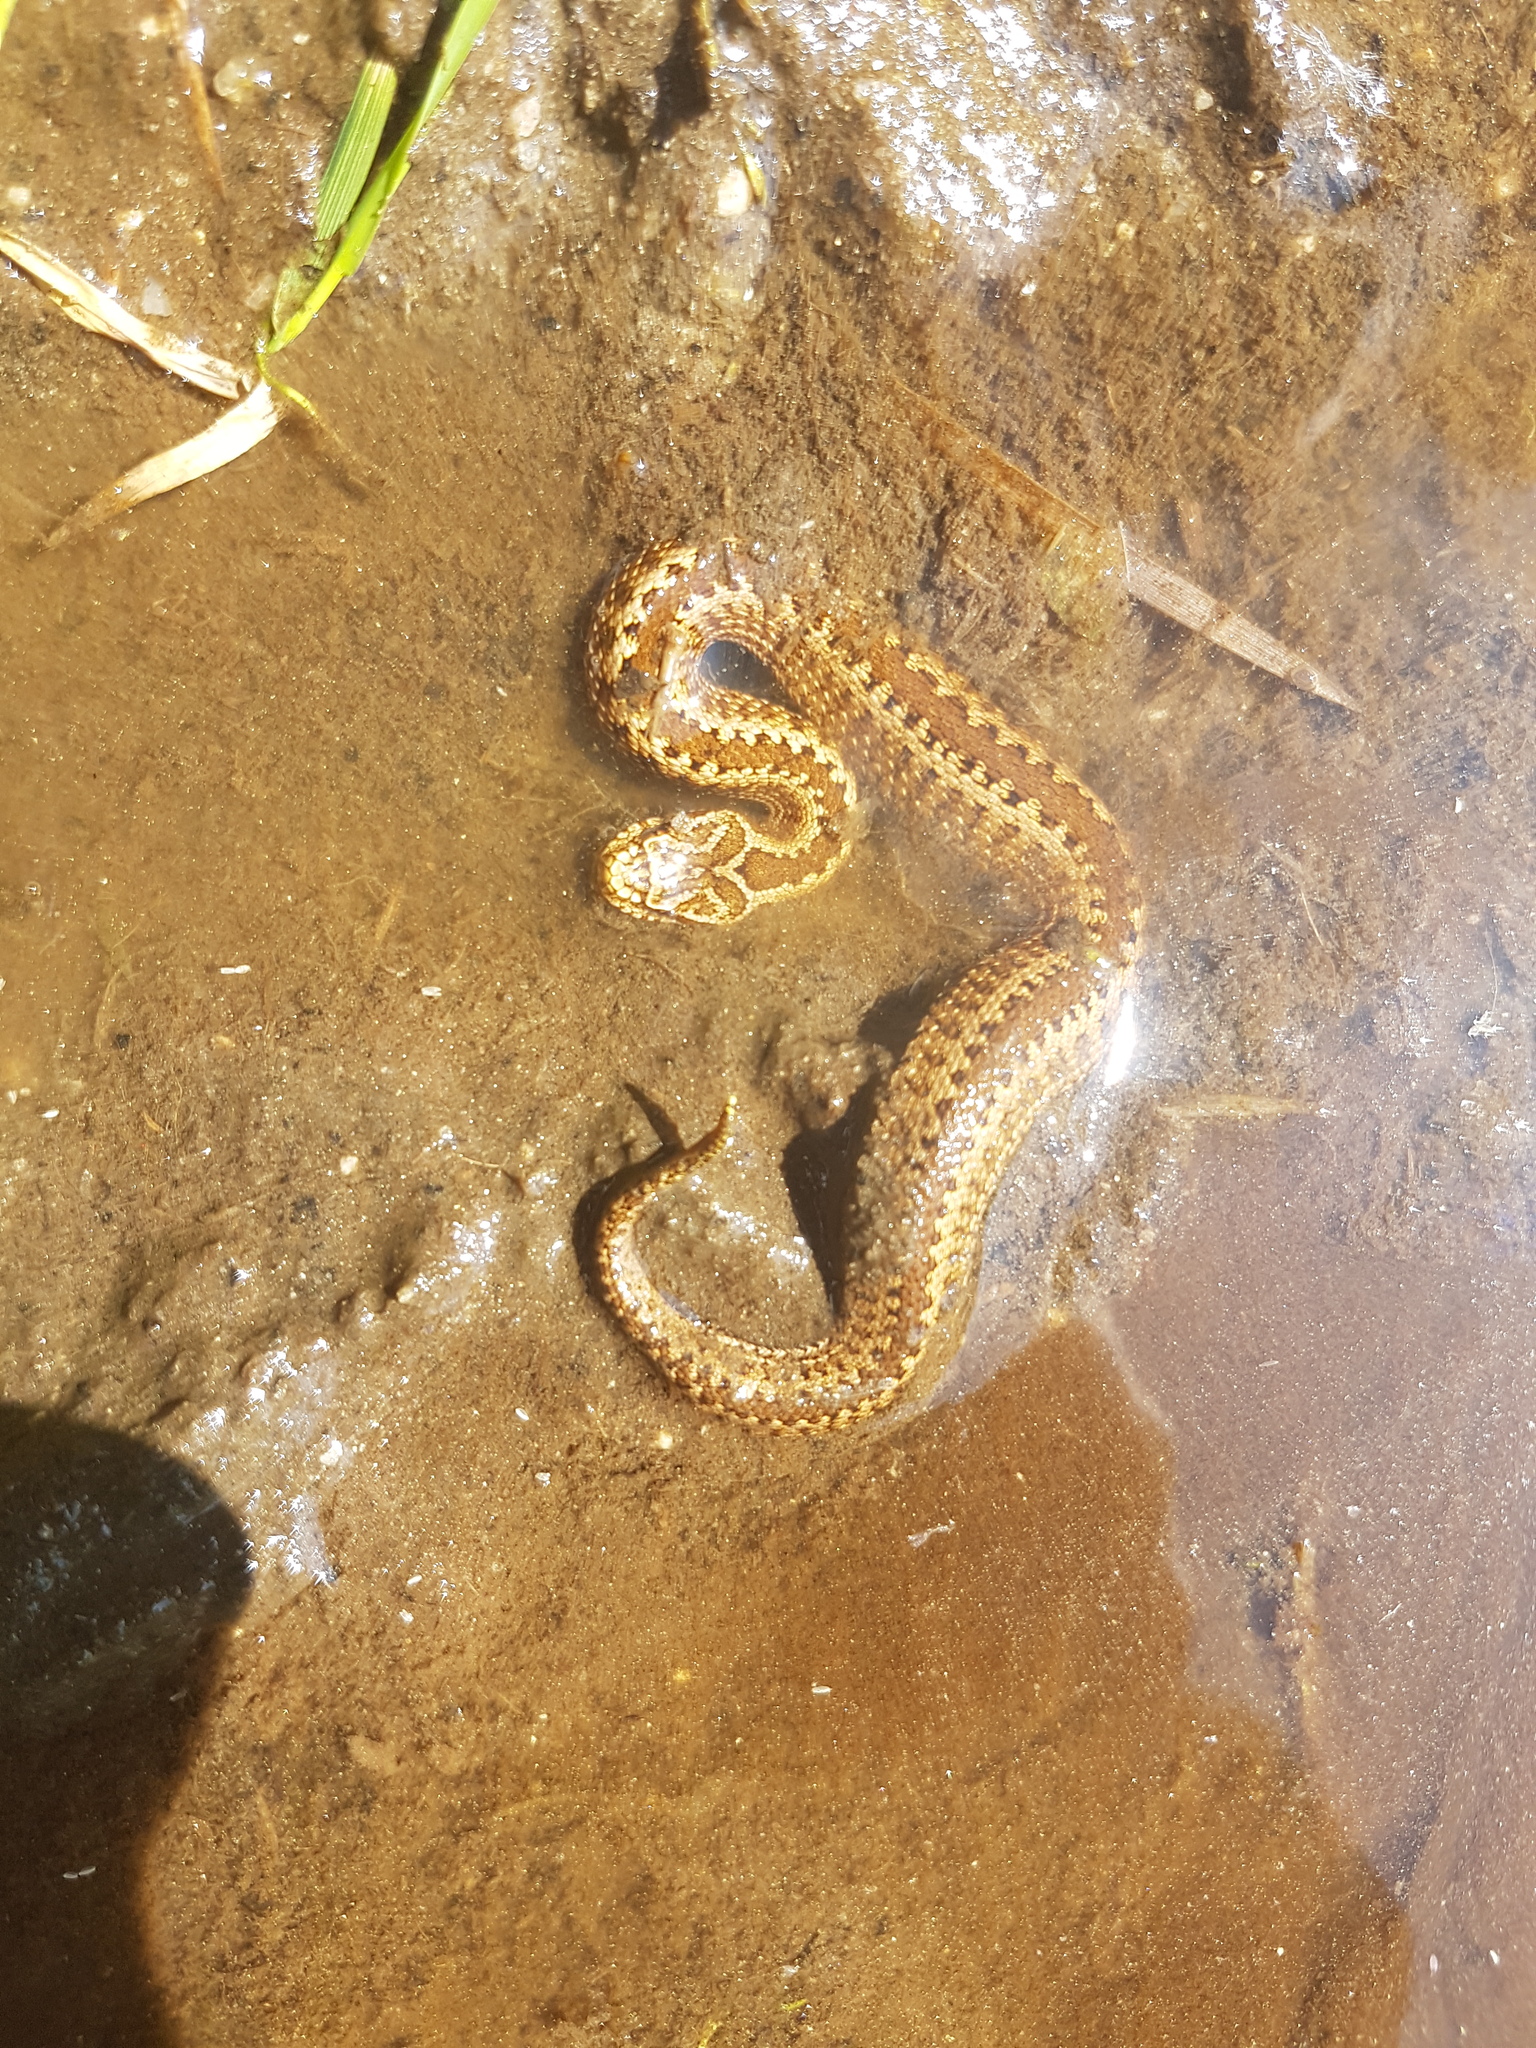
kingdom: Animalia
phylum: Chordata
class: Squamata
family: Viperidae
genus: Vipera
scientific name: Vipera seoanei
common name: Portugese viper
